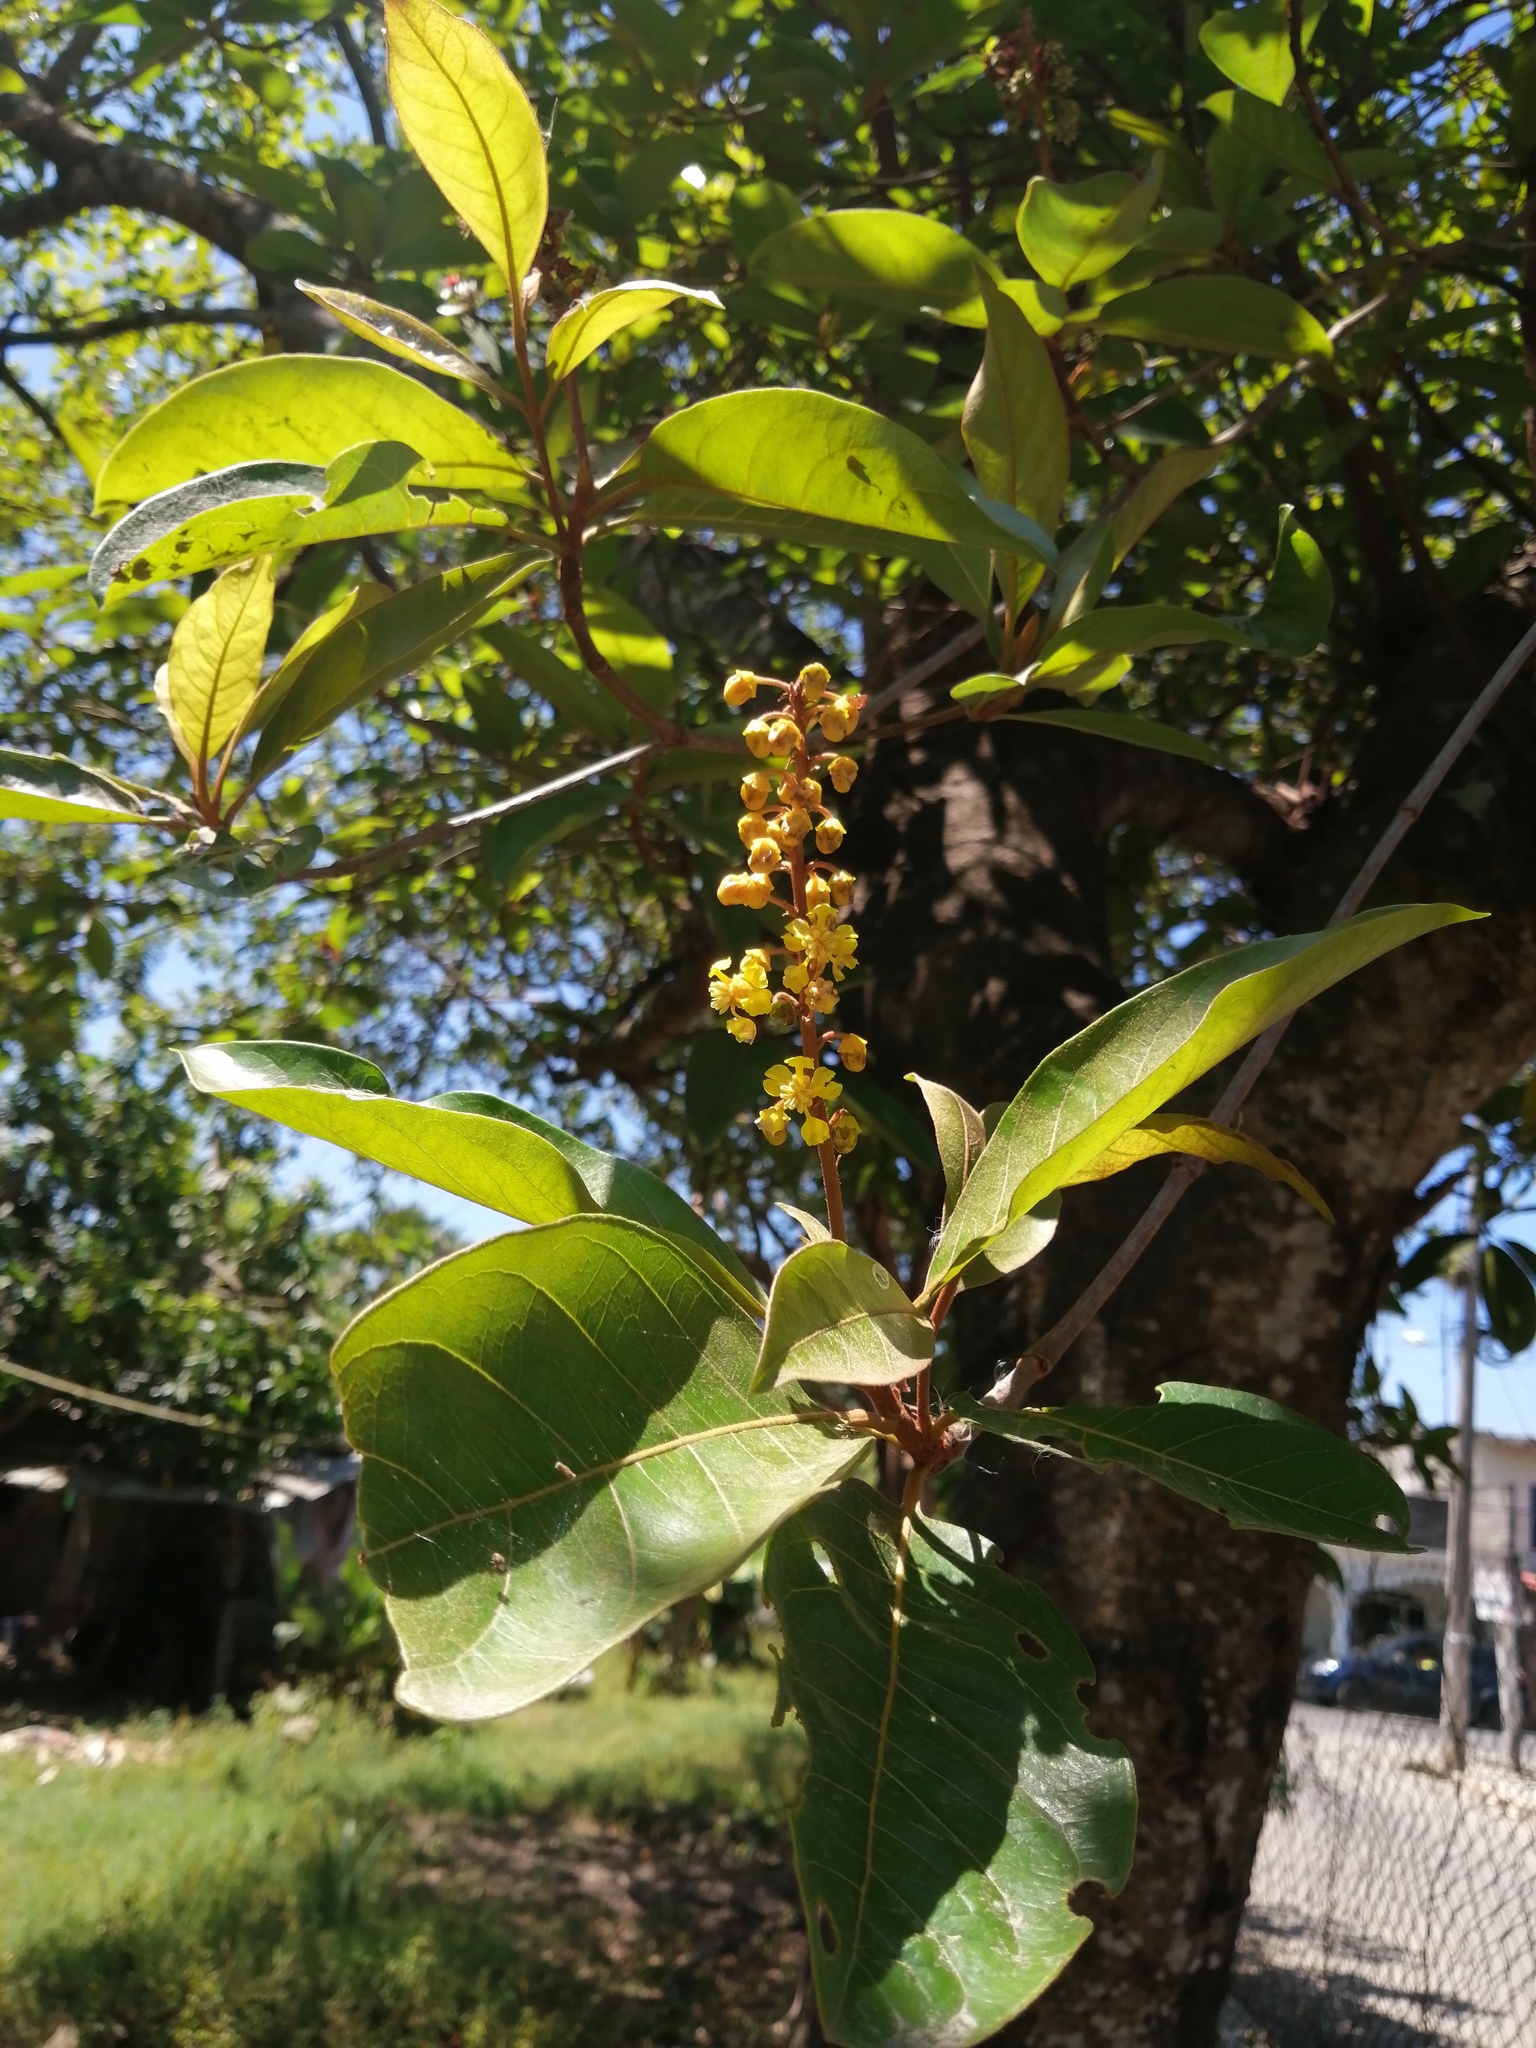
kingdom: Plantae
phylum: Tracheophyta
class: Magnoliopsida
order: Malpighiales
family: Malpighiaceae
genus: Byrsonima
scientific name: Byrsonima crassifolia
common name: Golden spoon
